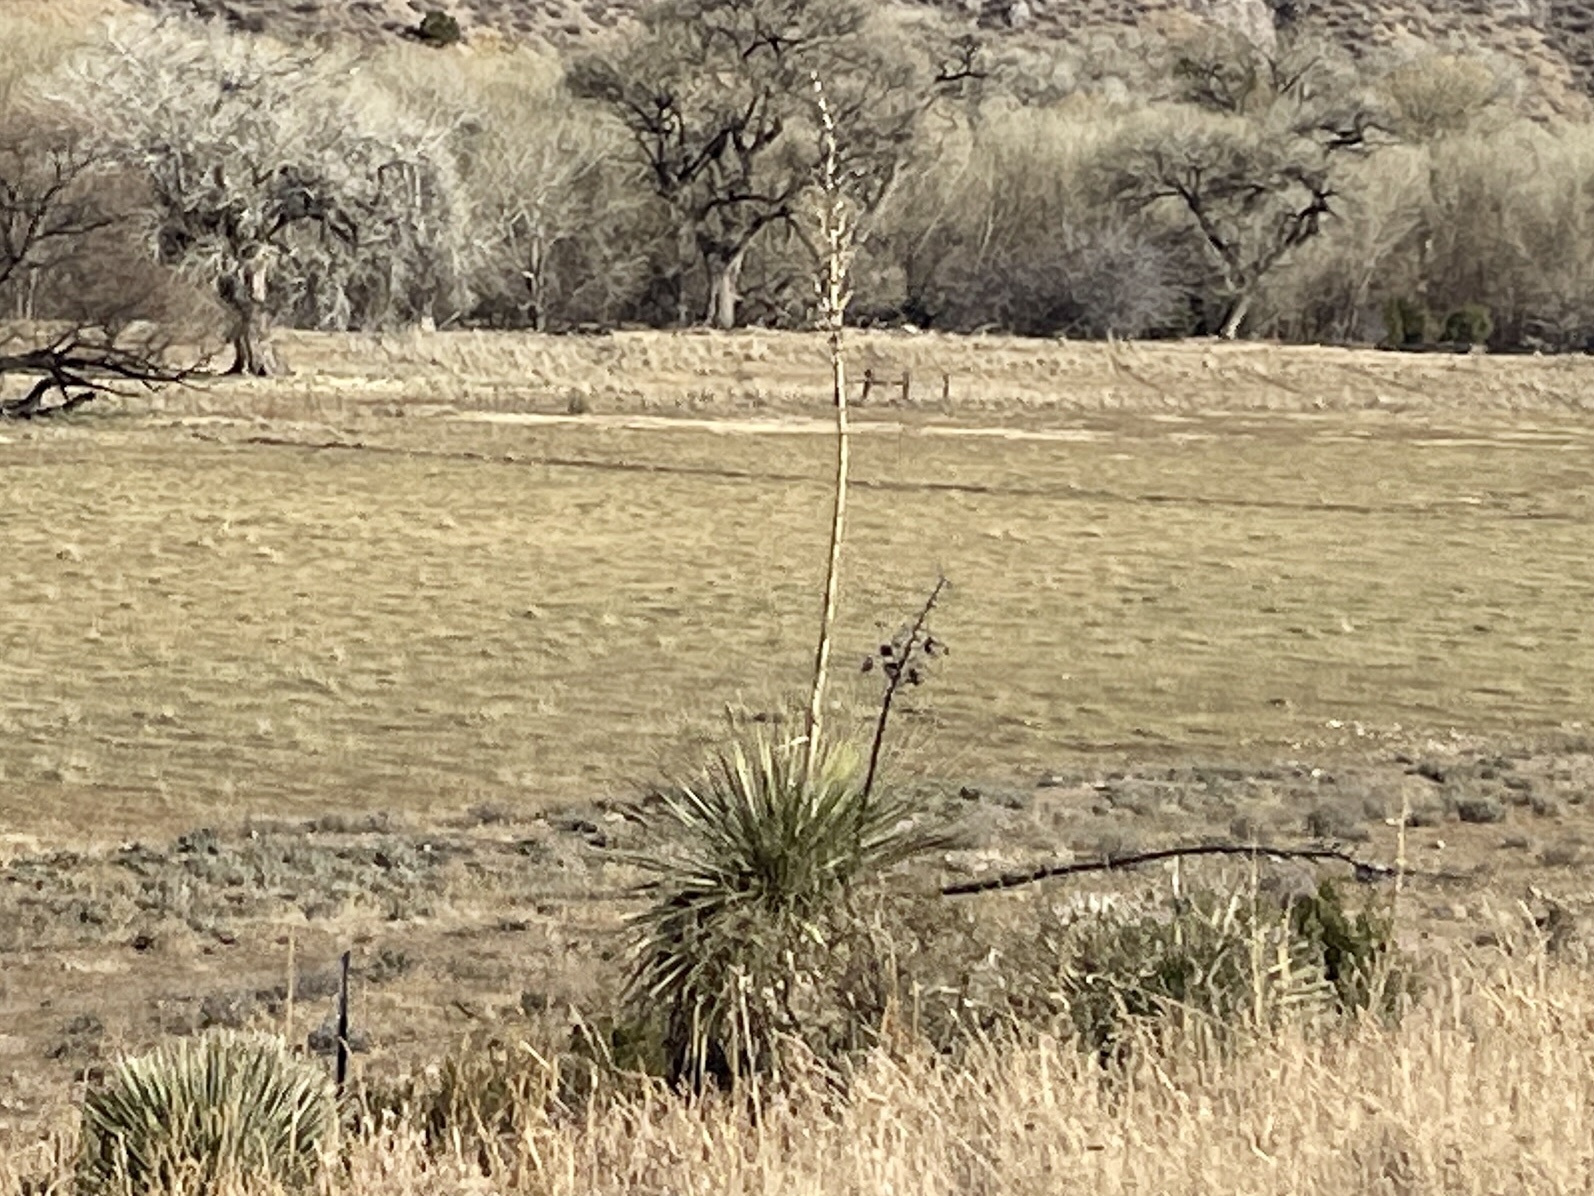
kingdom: Plantae
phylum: Tracheophyta
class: Liliopsida
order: Asparagales
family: Asparagaceae
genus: Yucca
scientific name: Yucca elata
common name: Palmella
